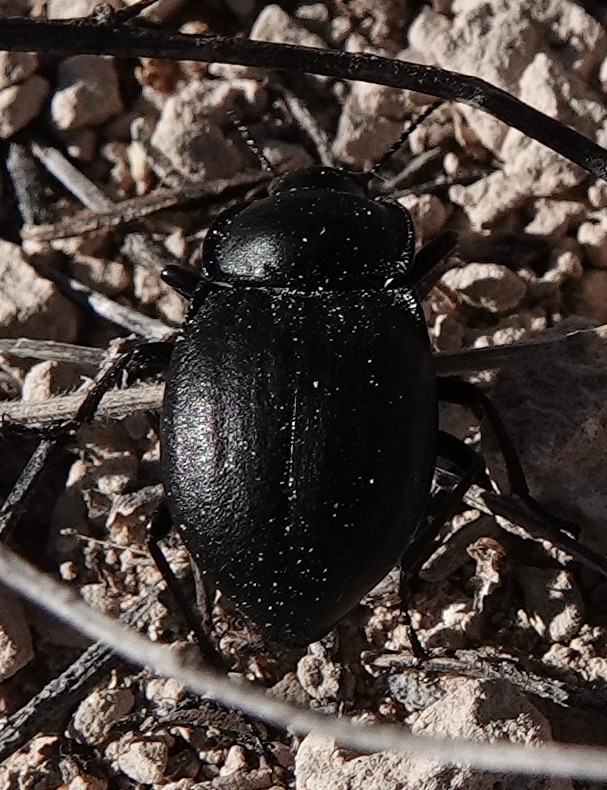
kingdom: Animalia
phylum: Arthropoda
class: Insecta
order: Coleoptera
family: Tenebrionidae
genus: Stenomorpha
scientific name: Stenomorpha polita
